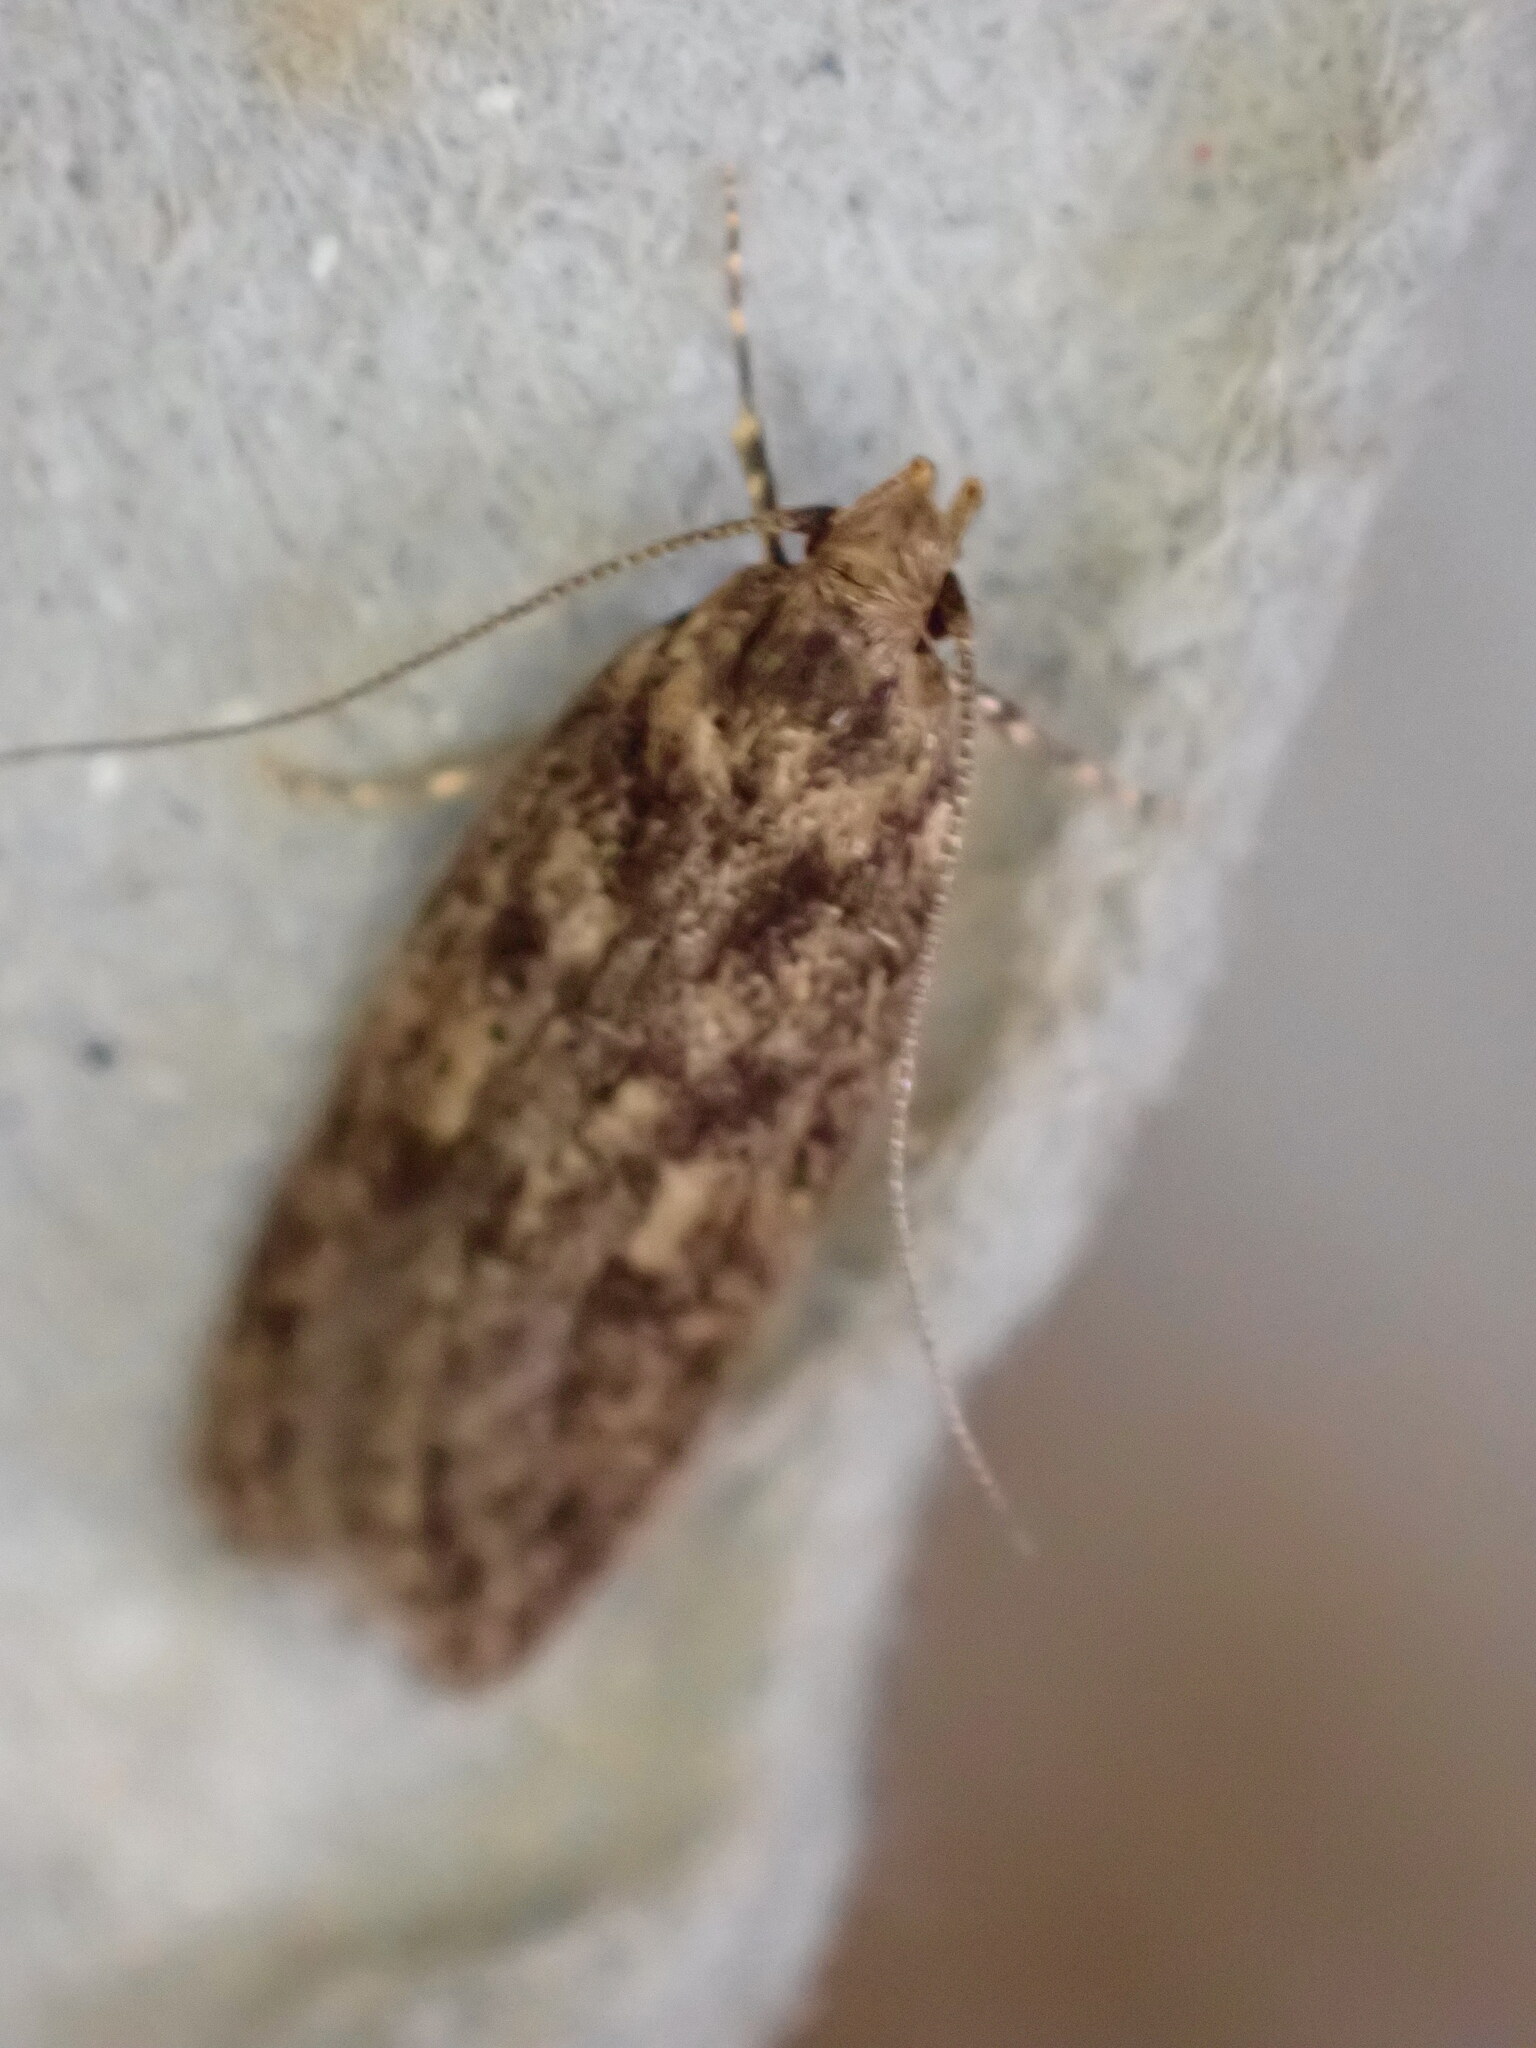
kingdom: Animalia
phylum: Arthropoda
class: Insecta
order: Lepidoptera
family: Oecophoridae
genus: Hofmannophila
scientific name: Hofmannophila pseudospretella
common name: Brown house moth
